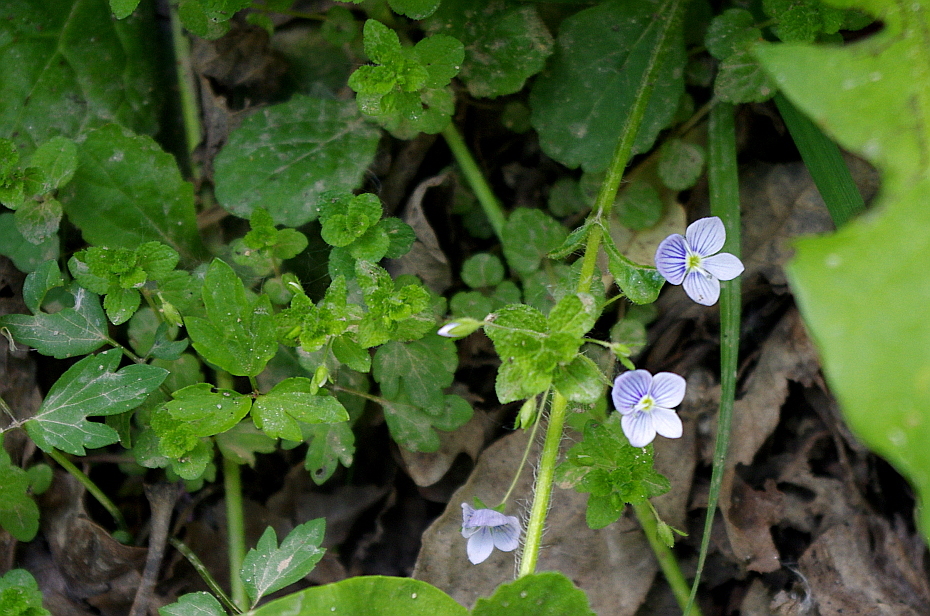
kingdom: Plantae
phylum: Tracheophyta
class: Magnoliopsida
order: Lamiales
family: Plantaginaceae
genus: Veronica
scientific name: Veronica filiformis
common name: Slender speedwell
